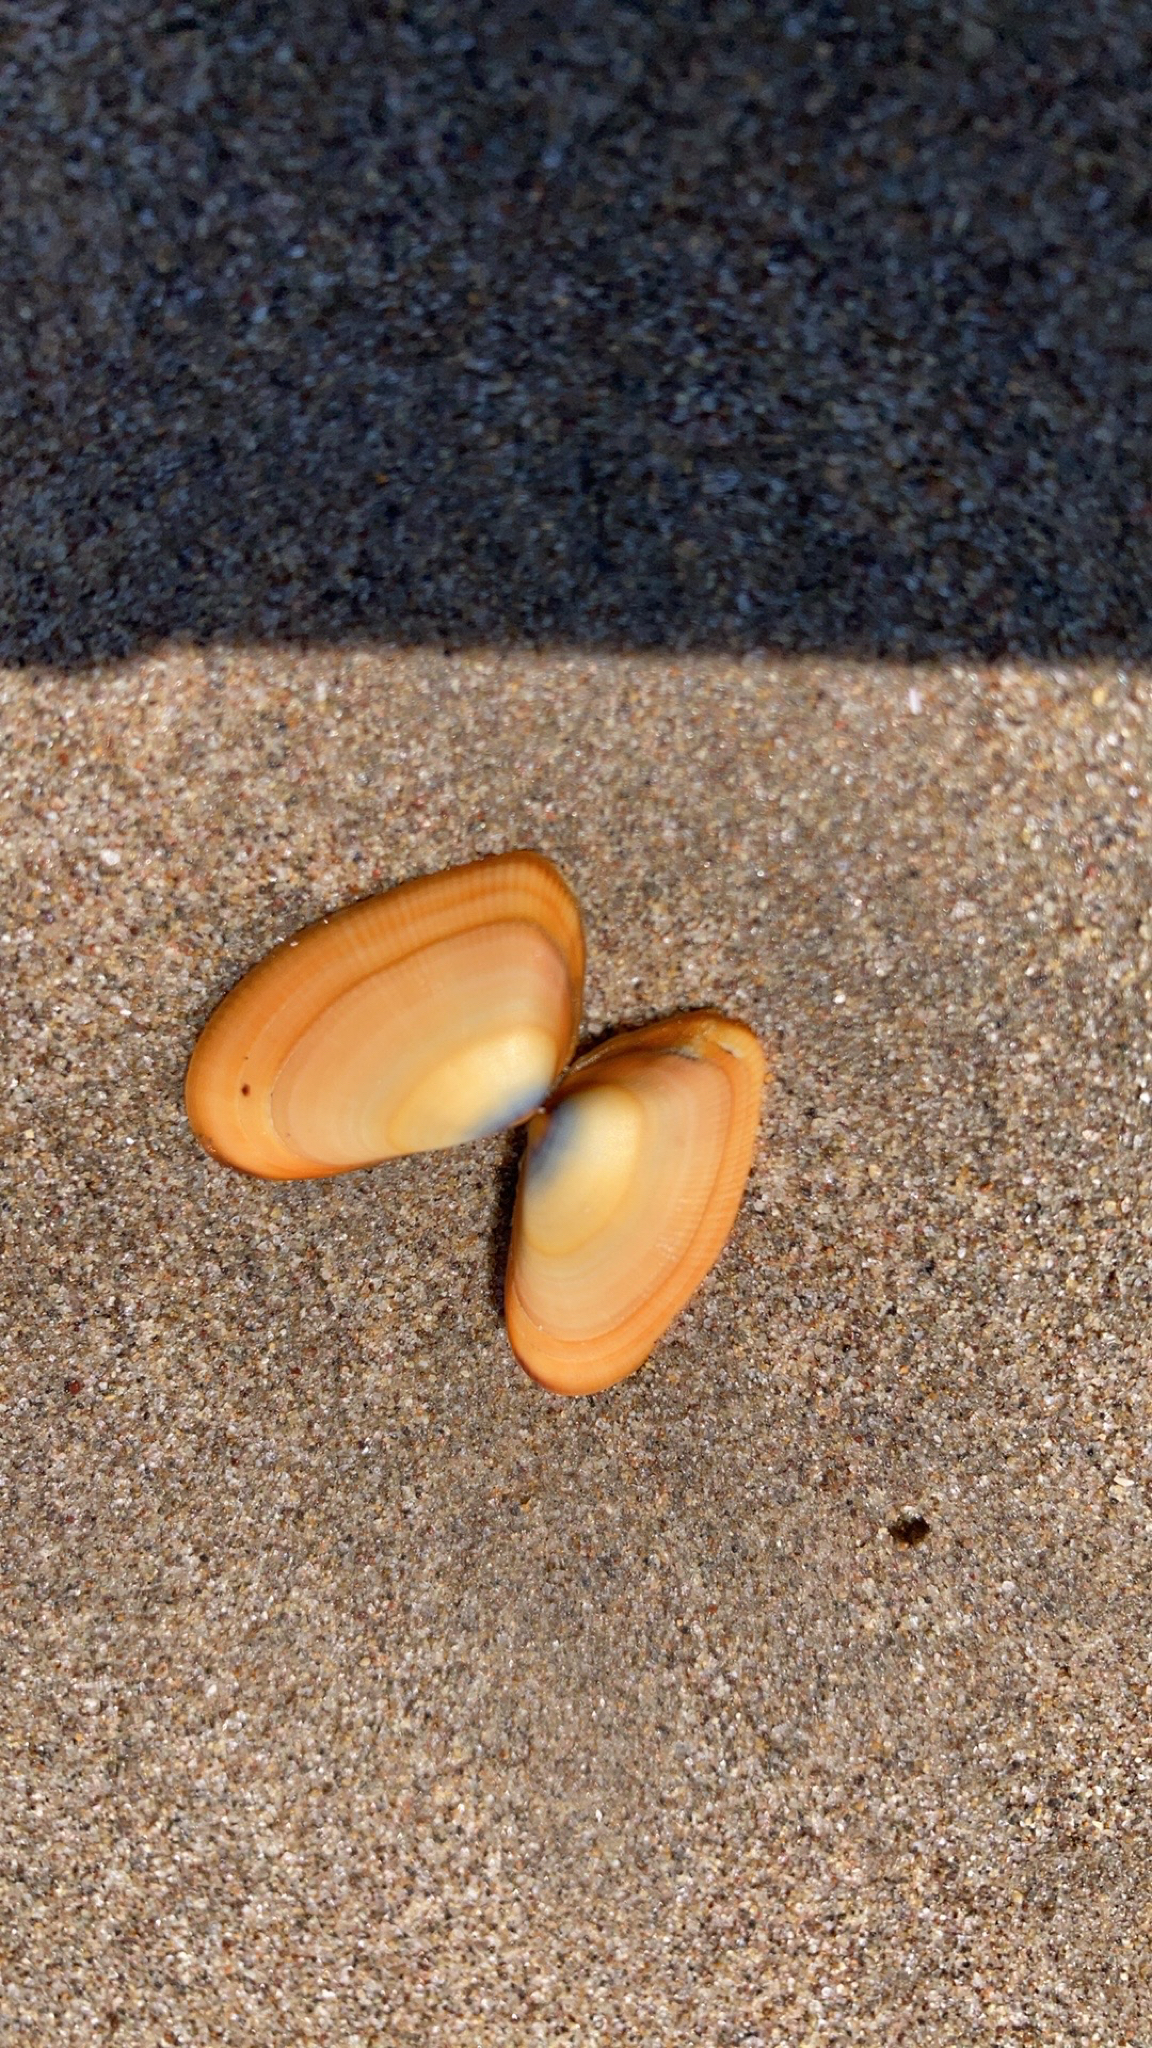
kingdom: Animalia
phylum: Mollusca
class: Bivalvia
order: Cardiida
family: Donacidae
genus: Donax
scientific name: Donax gouldii
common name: Gould beanclam
